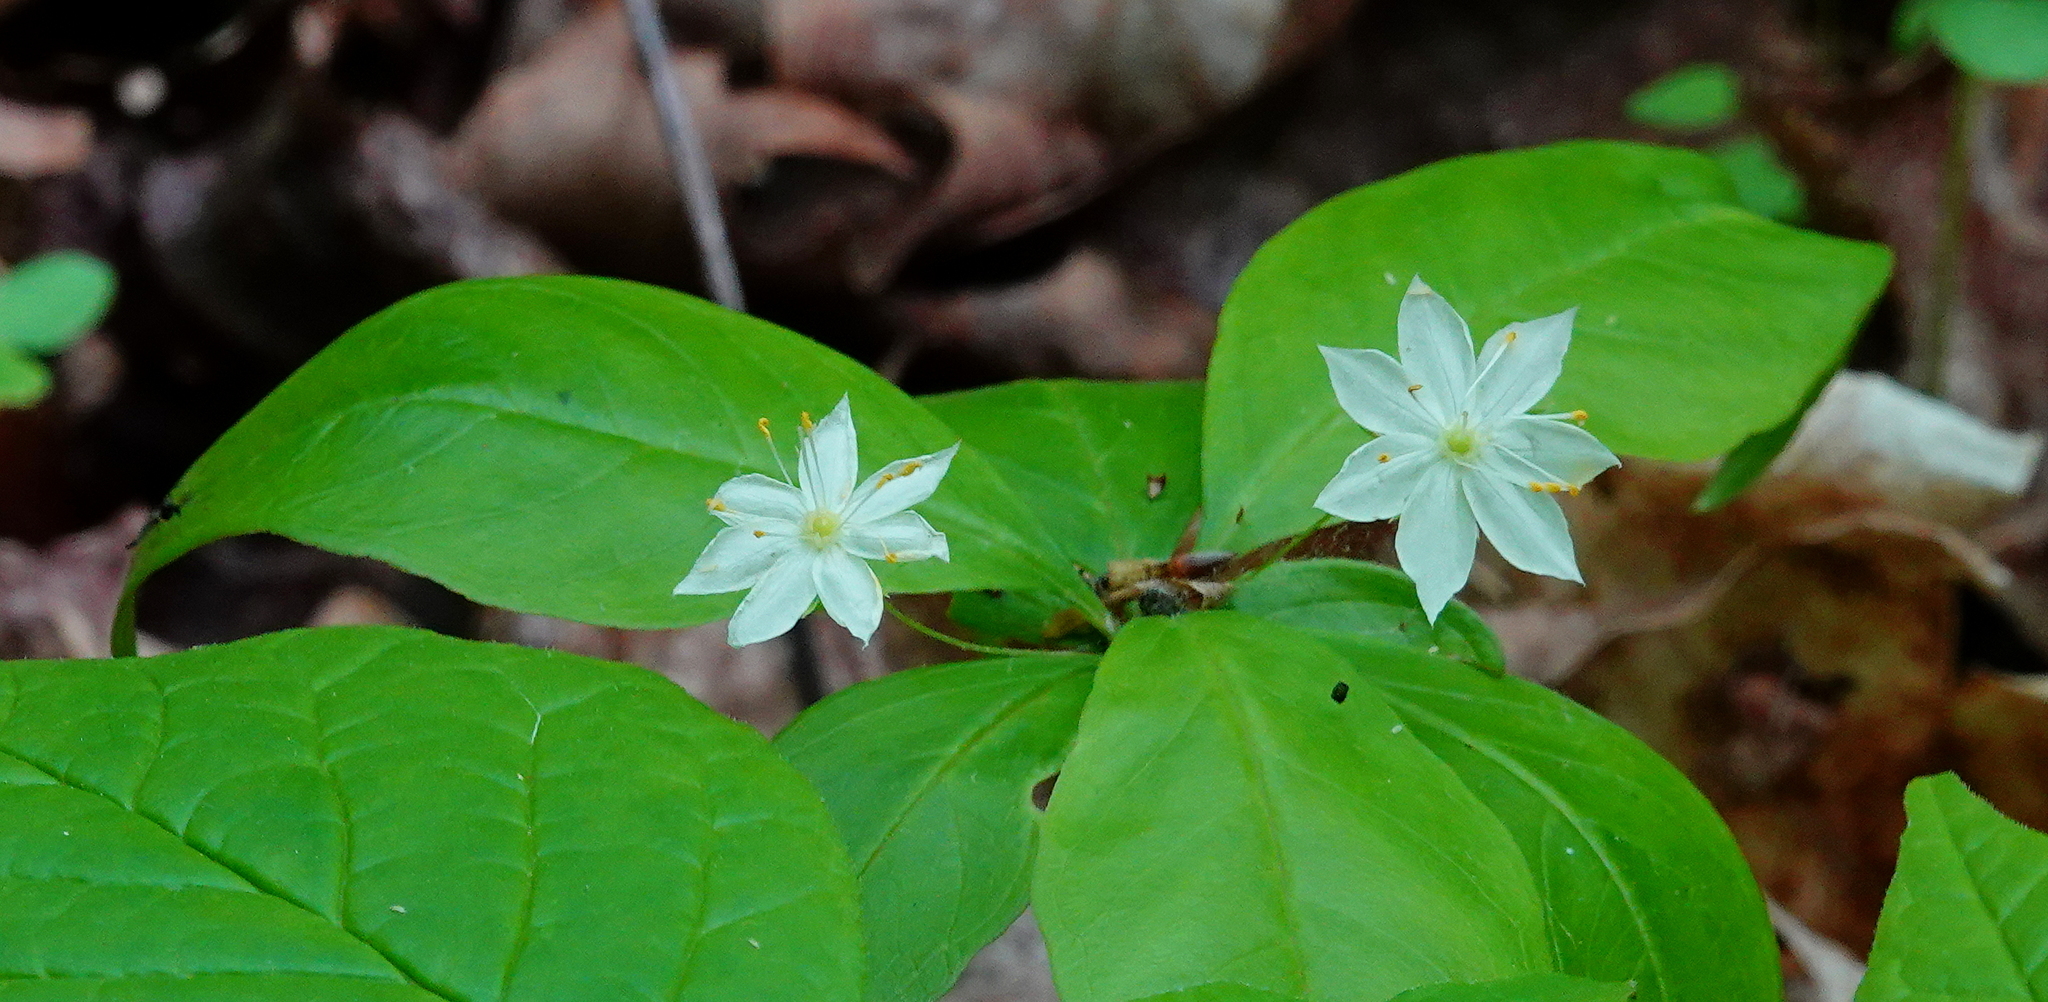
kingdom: Plantae
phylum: Tracheophyta
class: Magnoliopsida
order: Ericales
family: Primulaceae
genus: Lysimachia
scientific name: Lysimachia borealis
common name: American starflower
